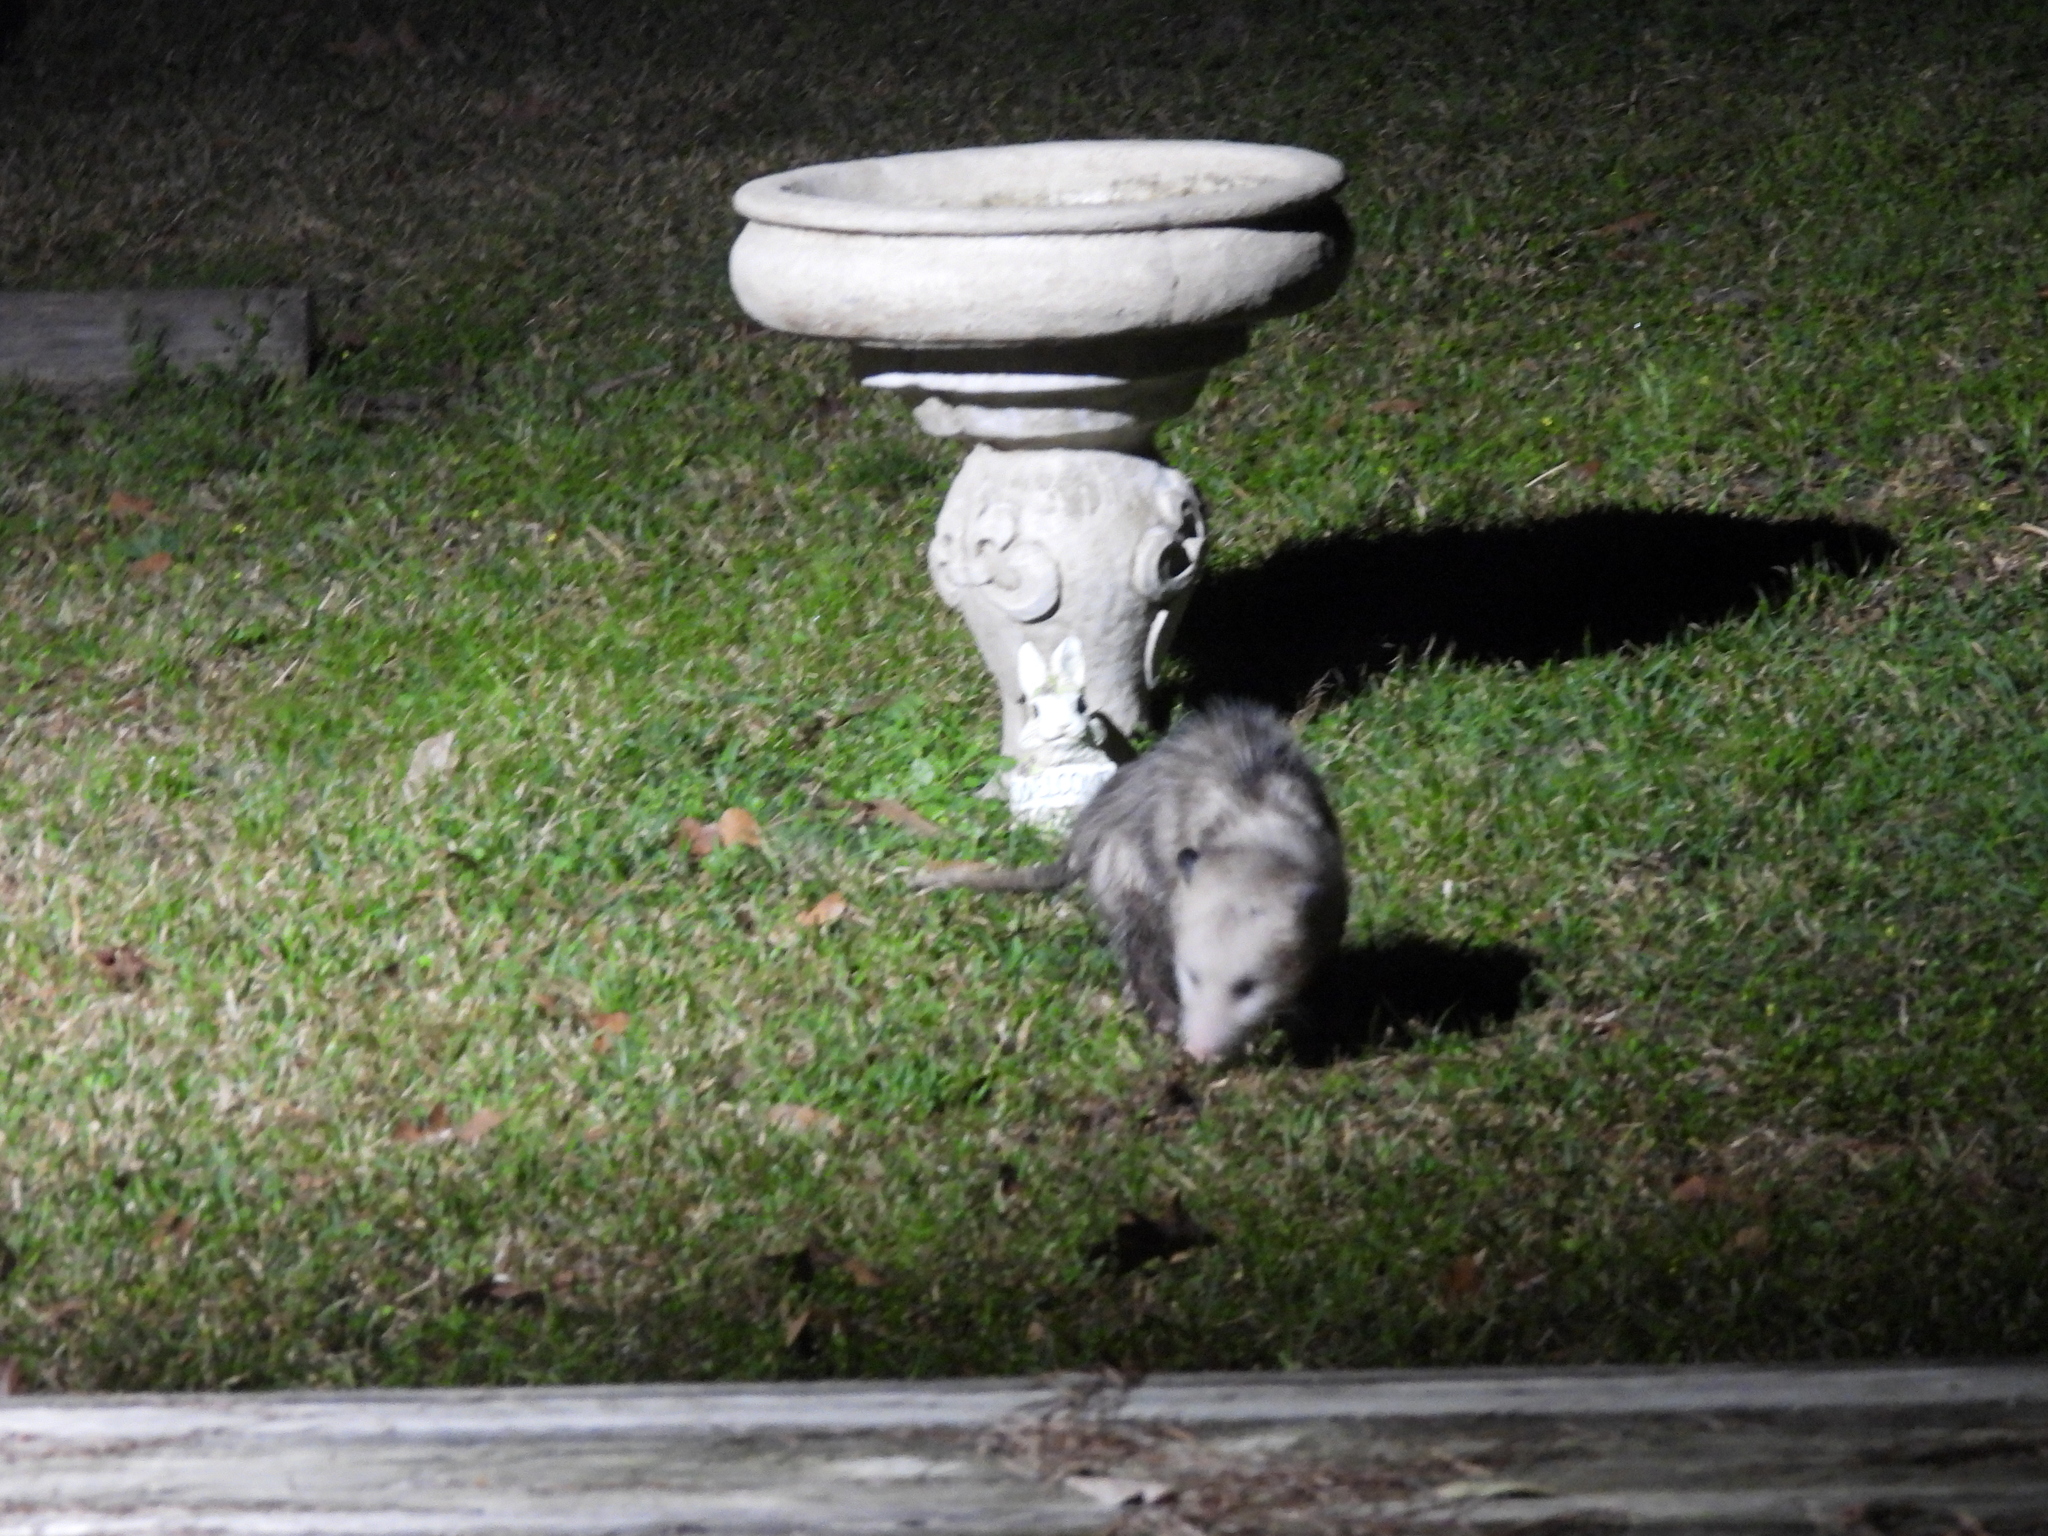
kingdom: Animalia
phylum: Chordata
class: Mammalia
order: Didelphimorphia
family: Didelphidae
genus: Didelphis
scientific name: Didelphis virginiana
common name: Virginia opossum
